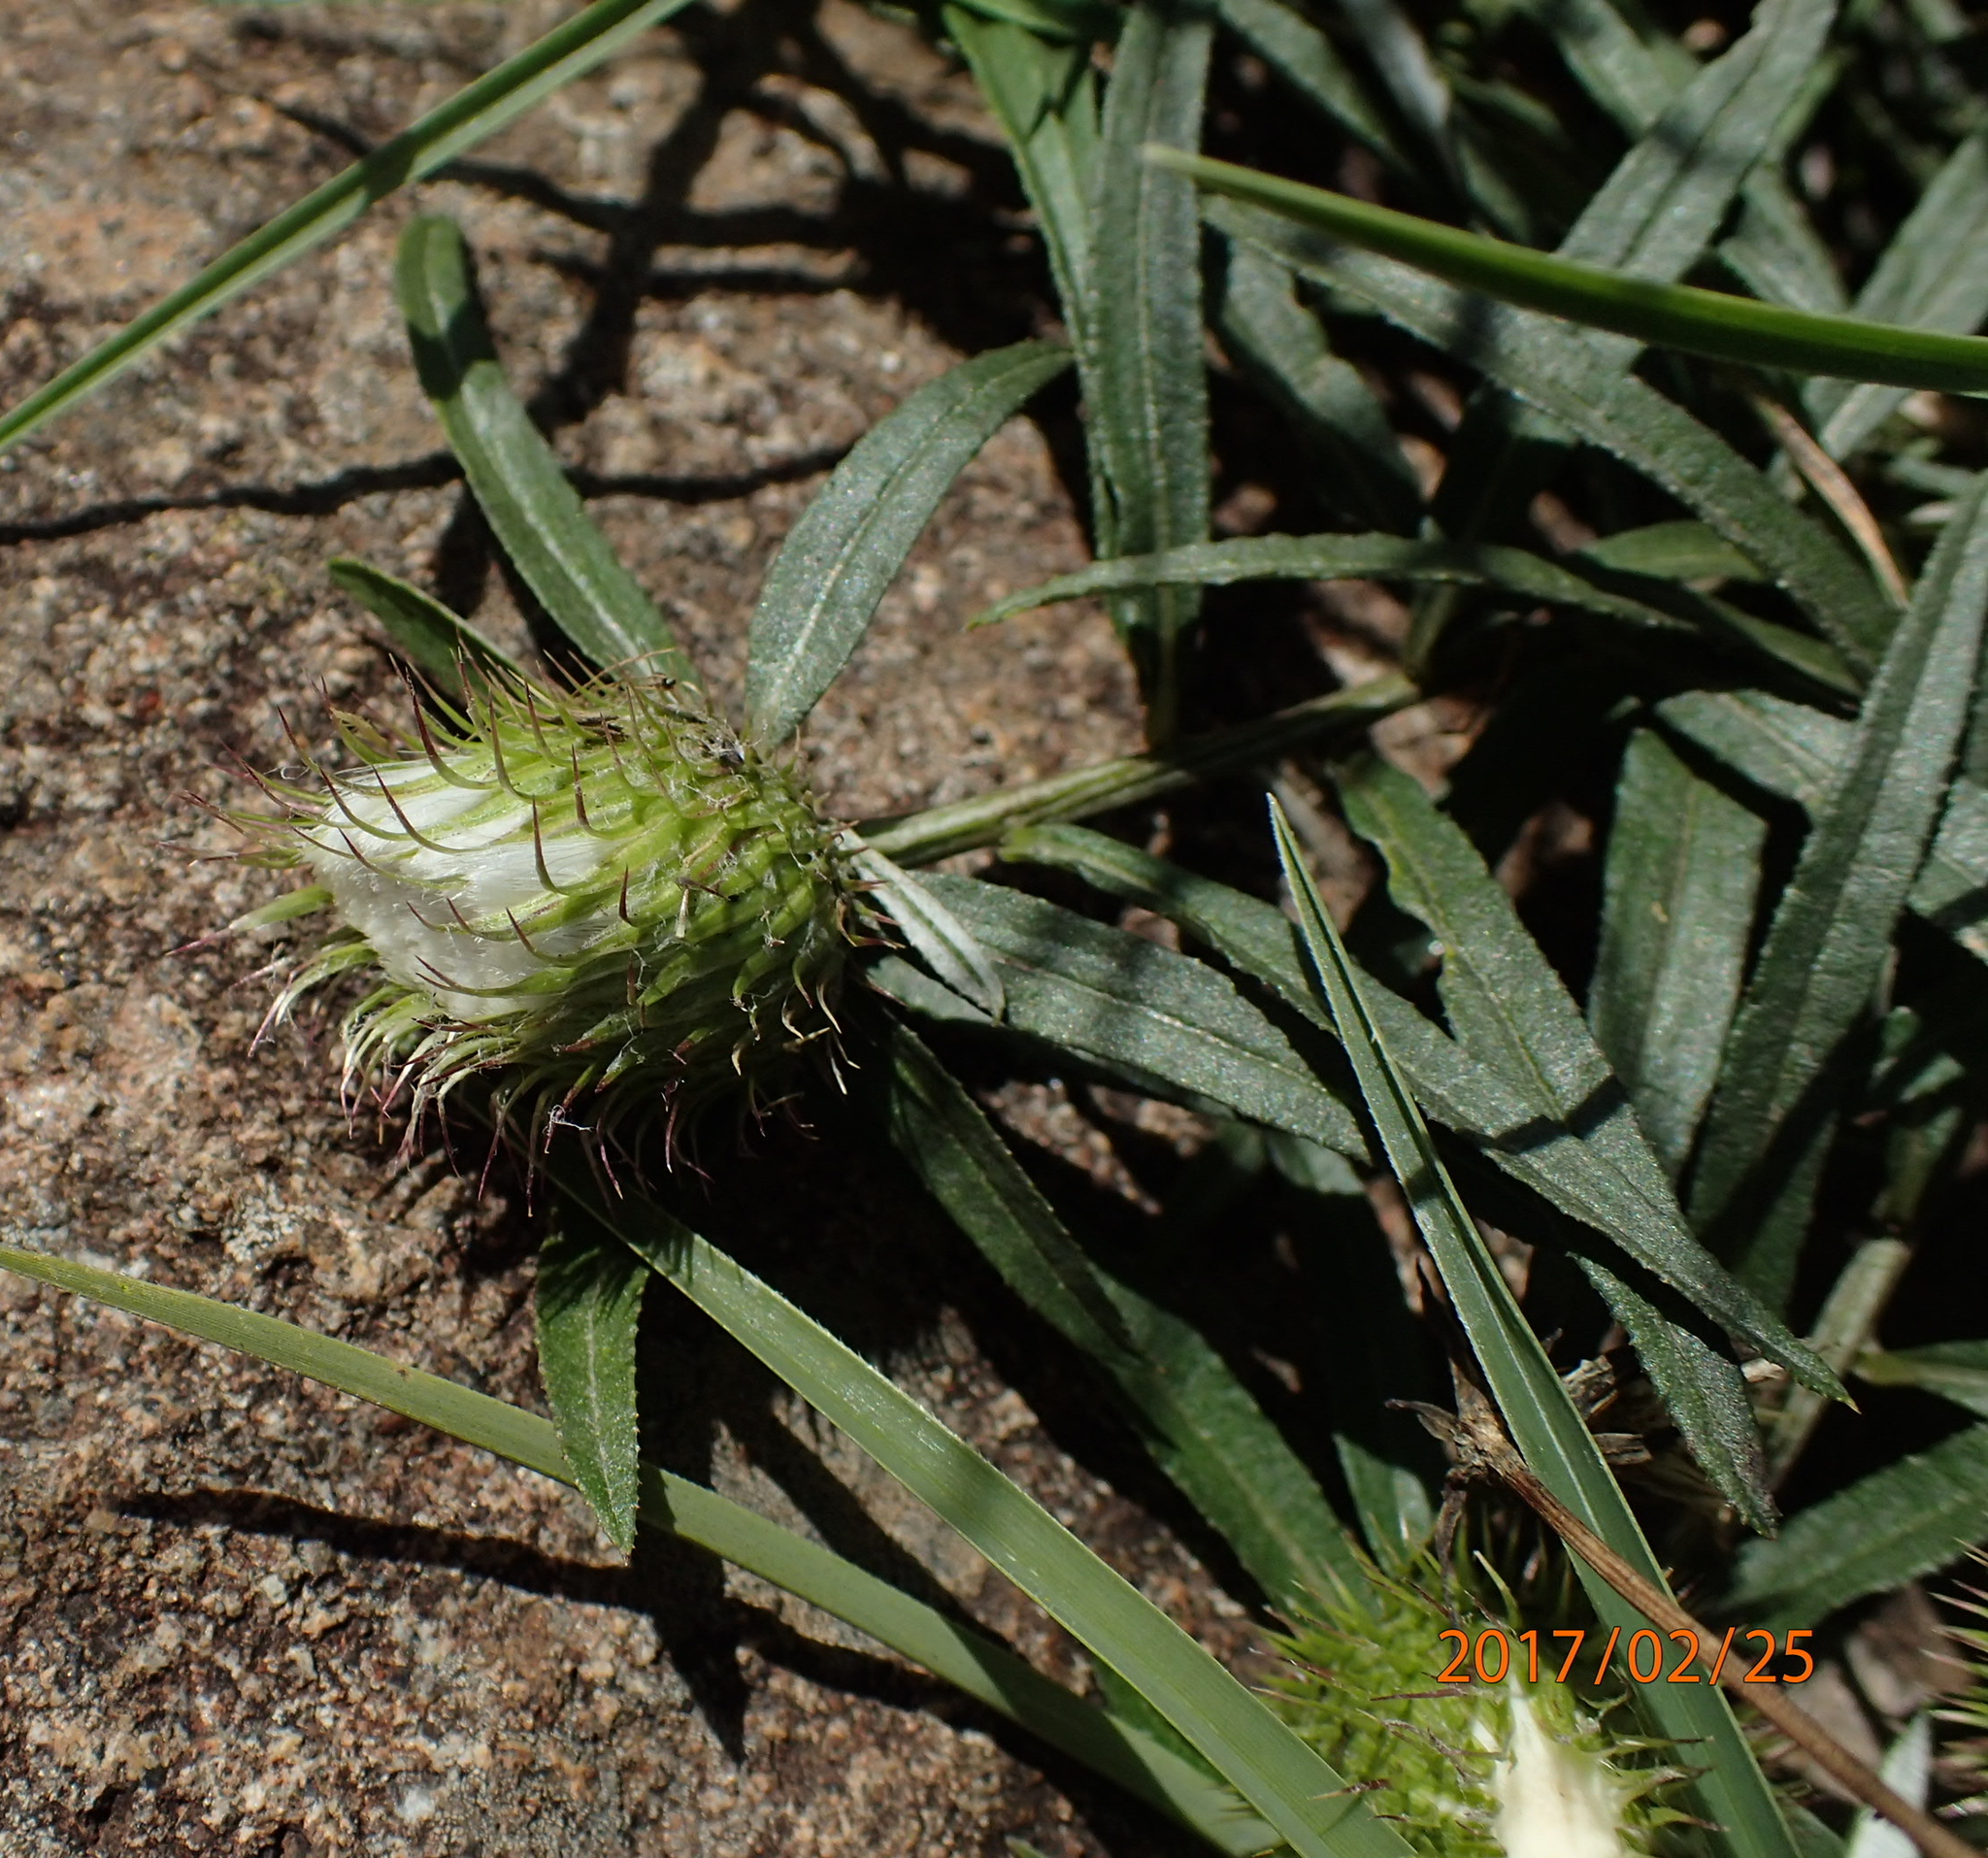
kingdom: Plantae
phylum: Tracheophyta
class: Magnoliopsida
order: Asterales
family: Asteraceae
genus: Dicoma
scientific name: Dicoma anomala
